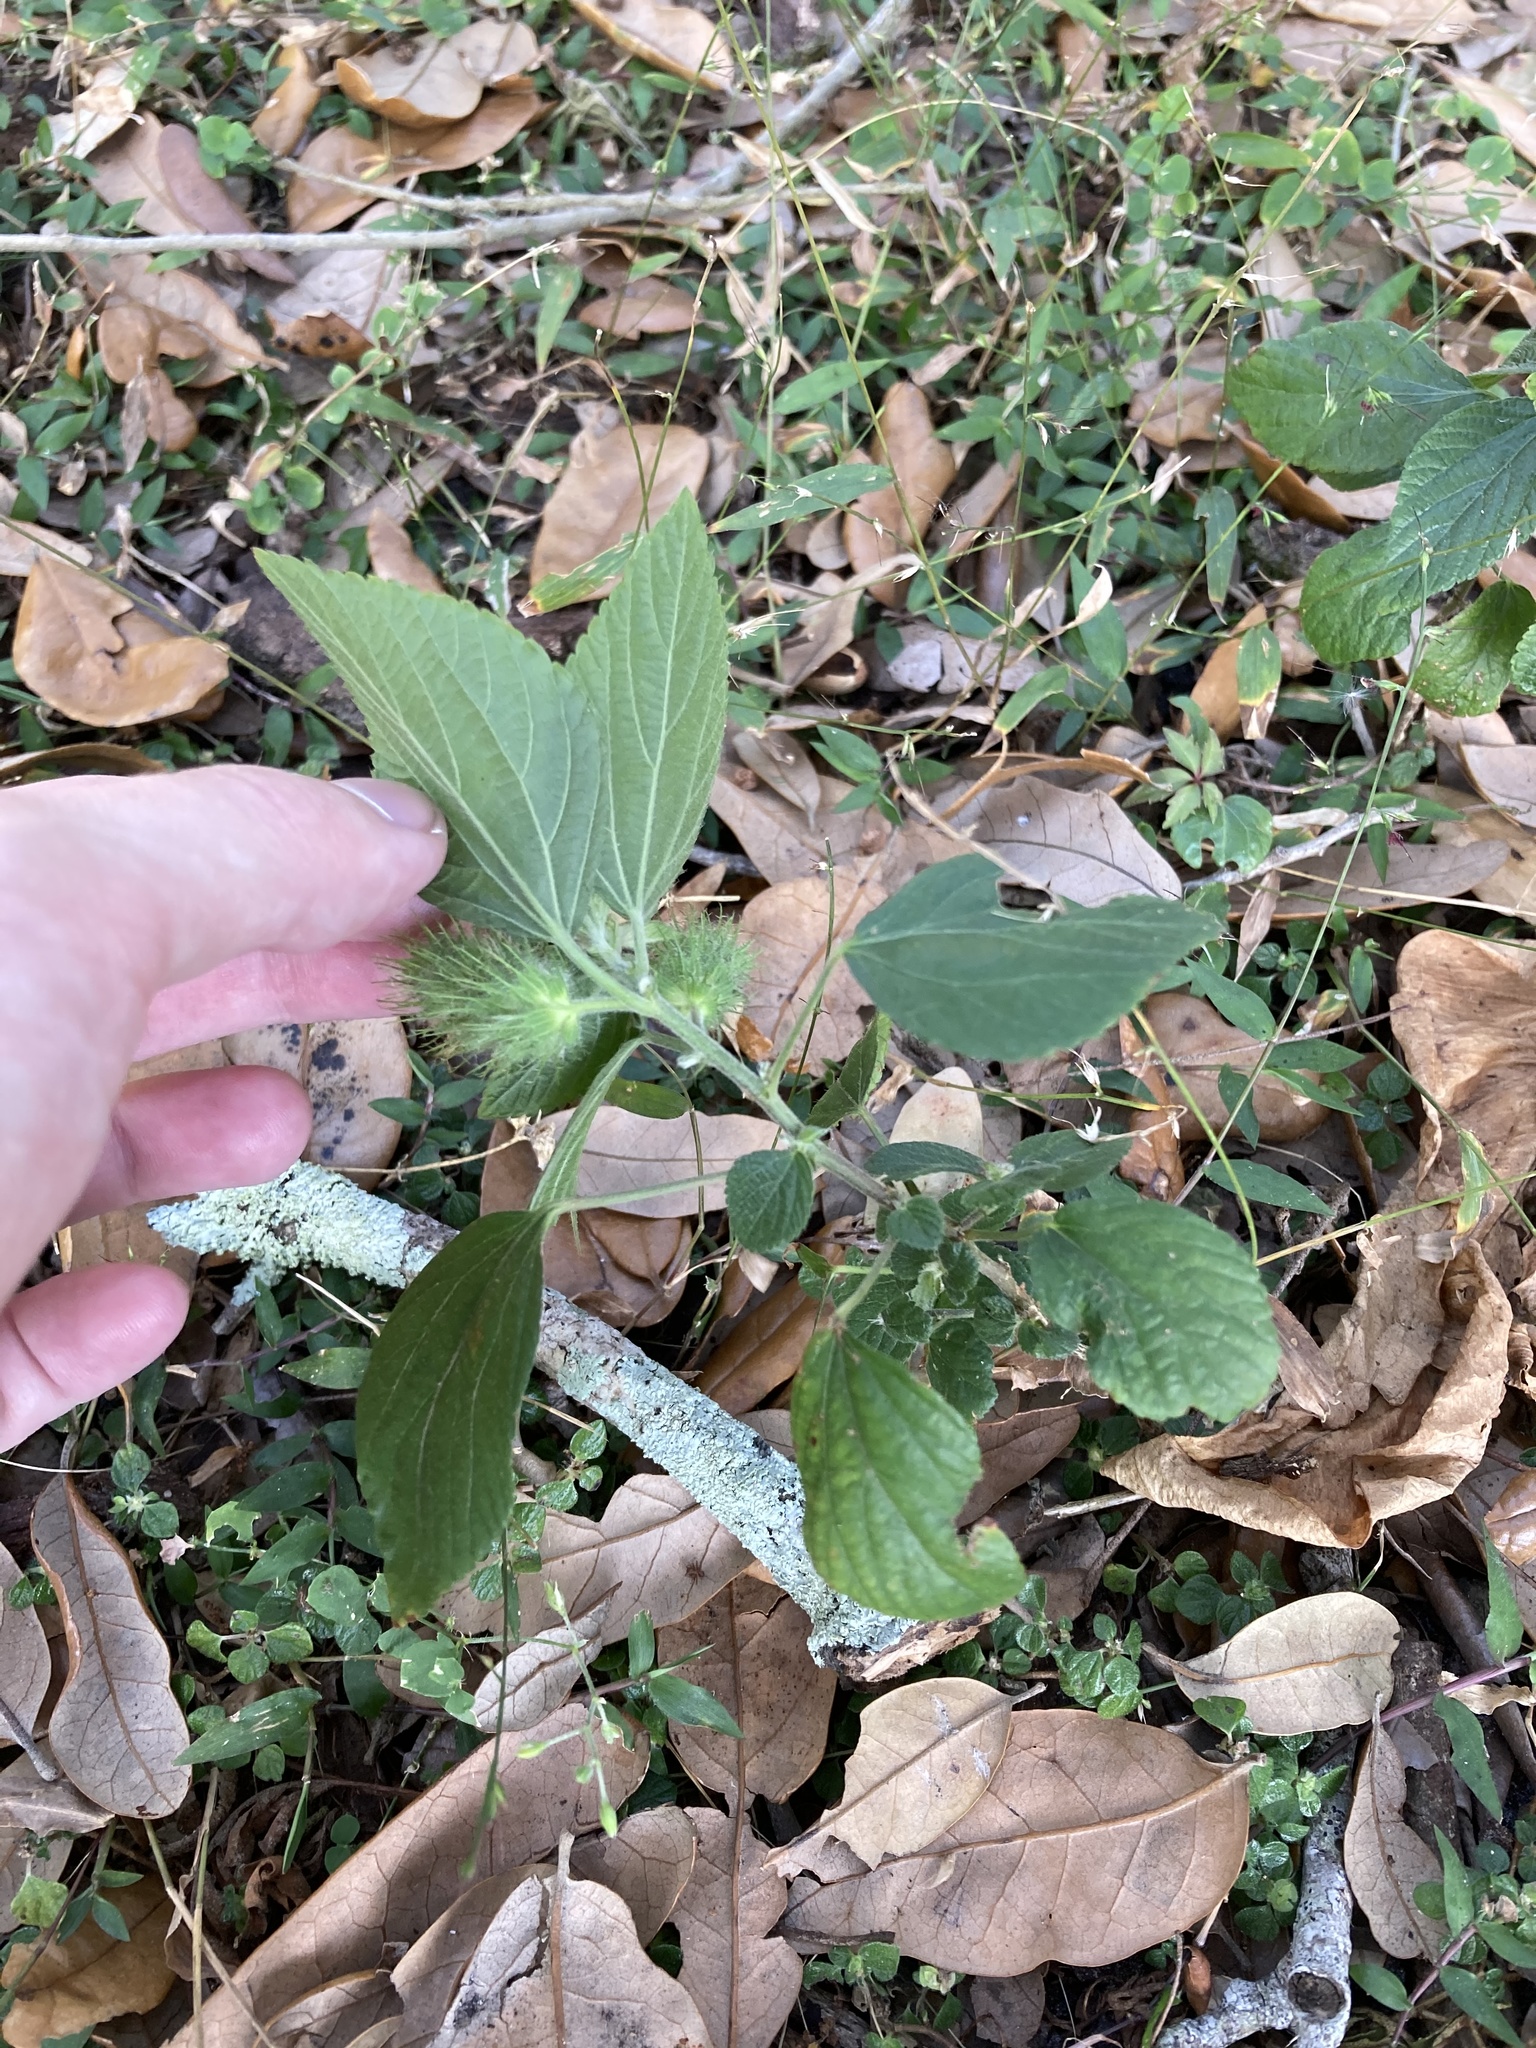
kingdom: Plantae
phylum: Tracheophyta
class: Magnoliopsida
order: Malpighiales
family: Euphorbiaceae
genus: Acalypha
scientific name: Acalypha arvensis
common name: Field copperleaf
